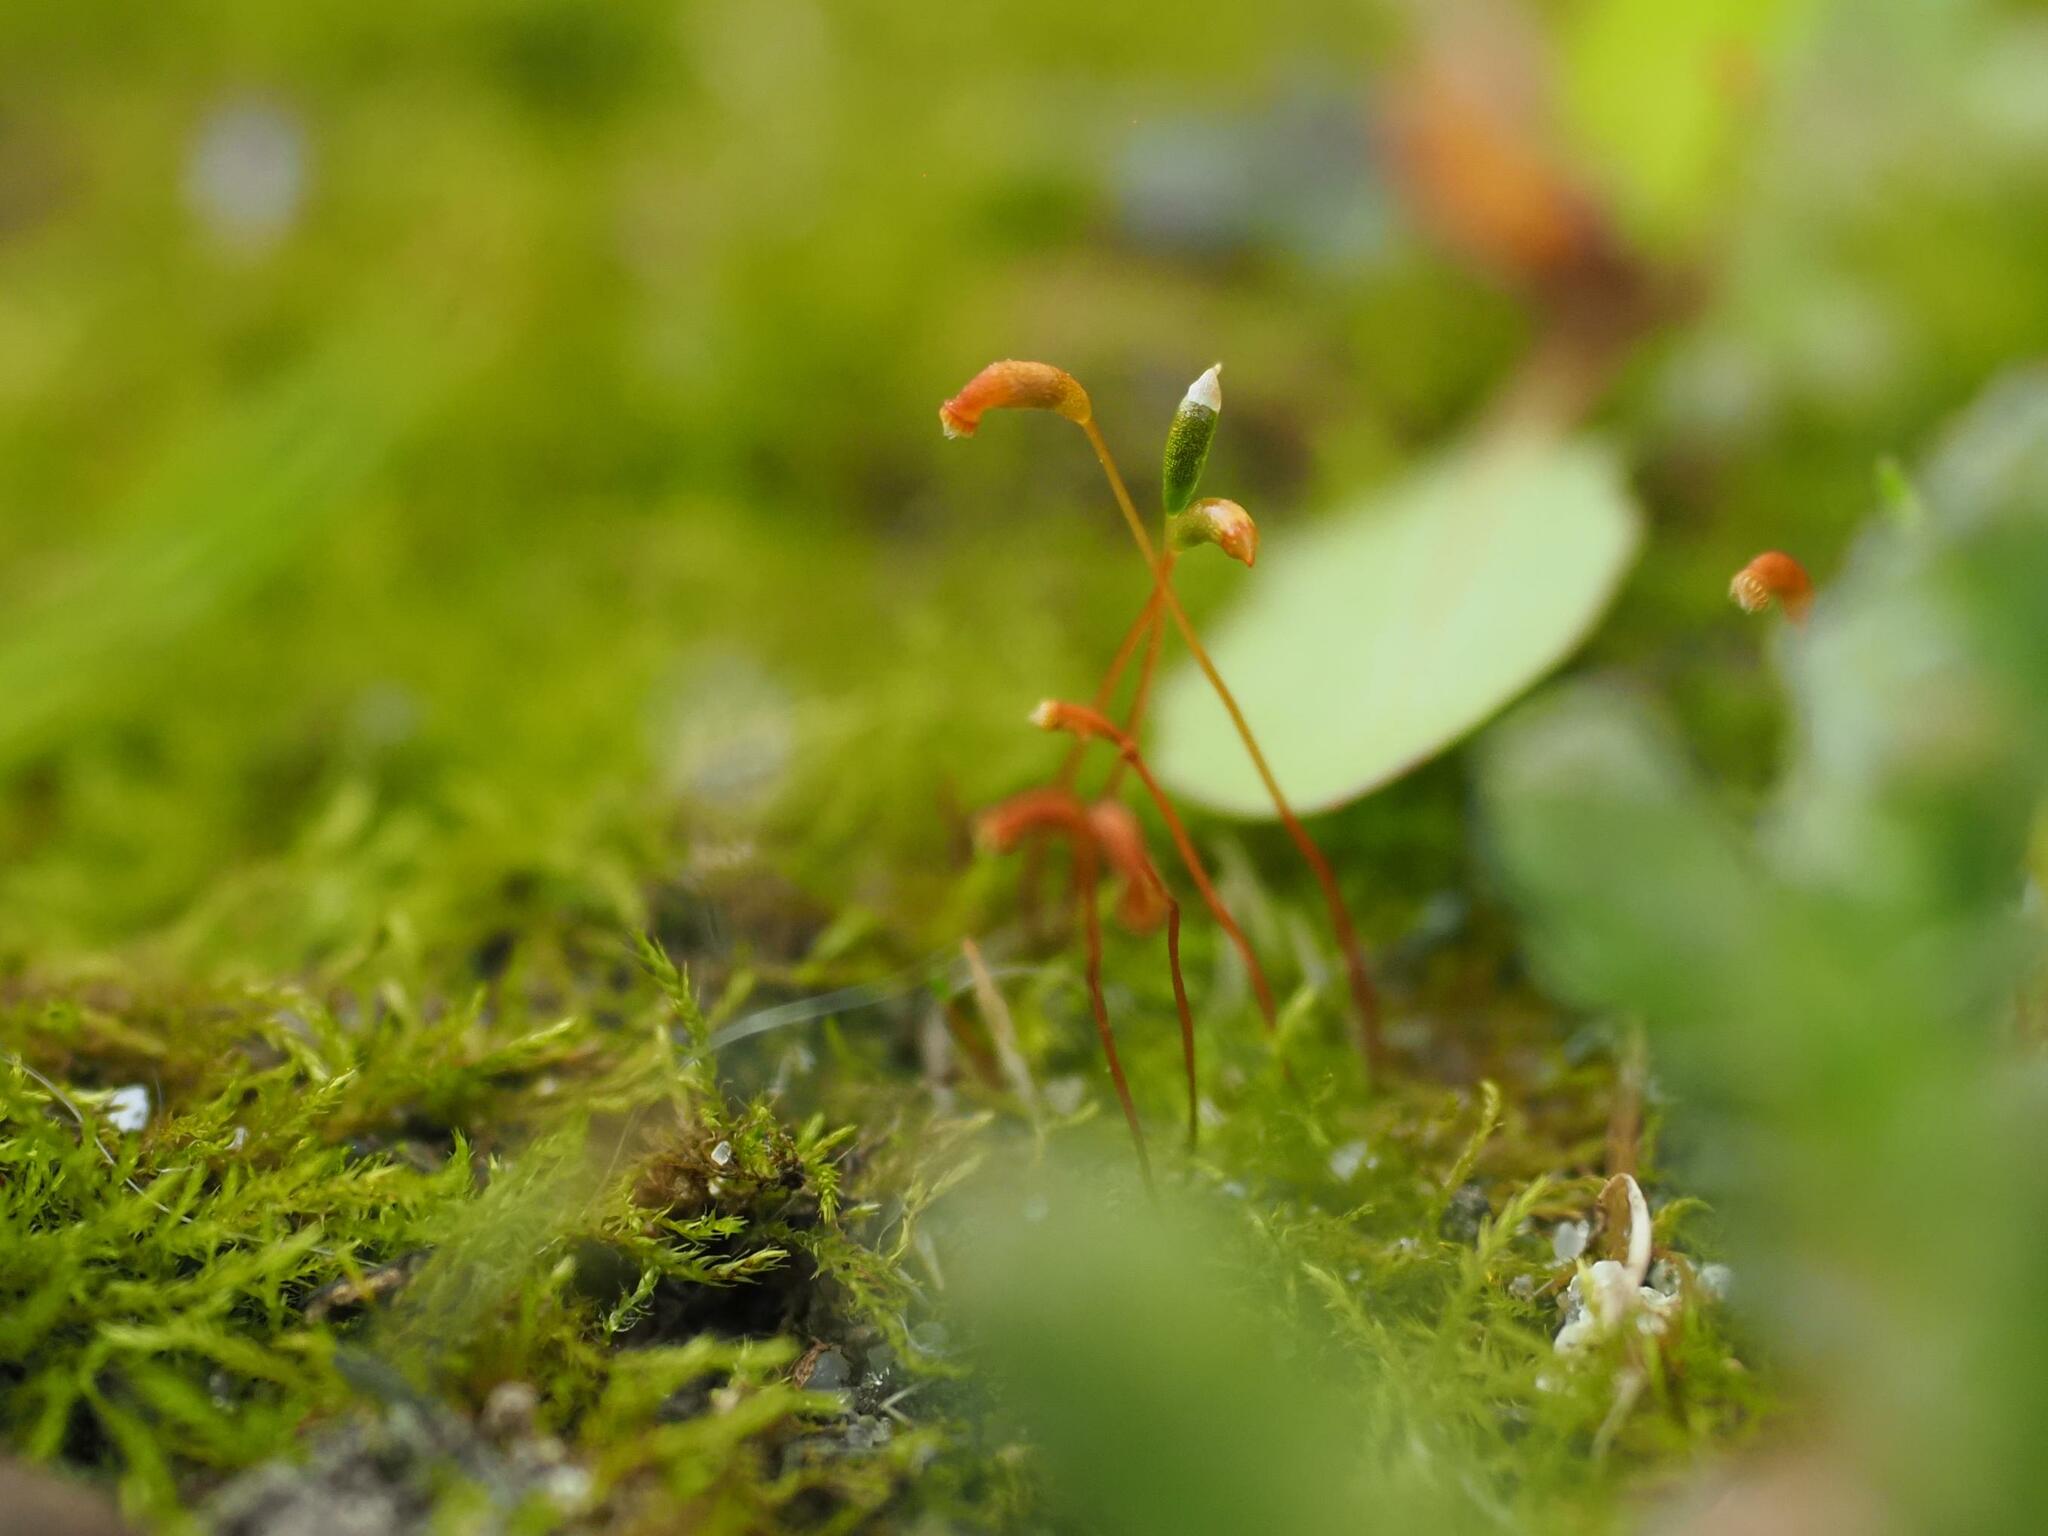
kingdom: Plantae
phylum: Bryophyta
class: Bryopsida
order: Hypnales
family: Amblystegiaceae
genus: Amblystegium
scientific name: Amblystegium serpens
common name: Jurkatzka's feather moss
